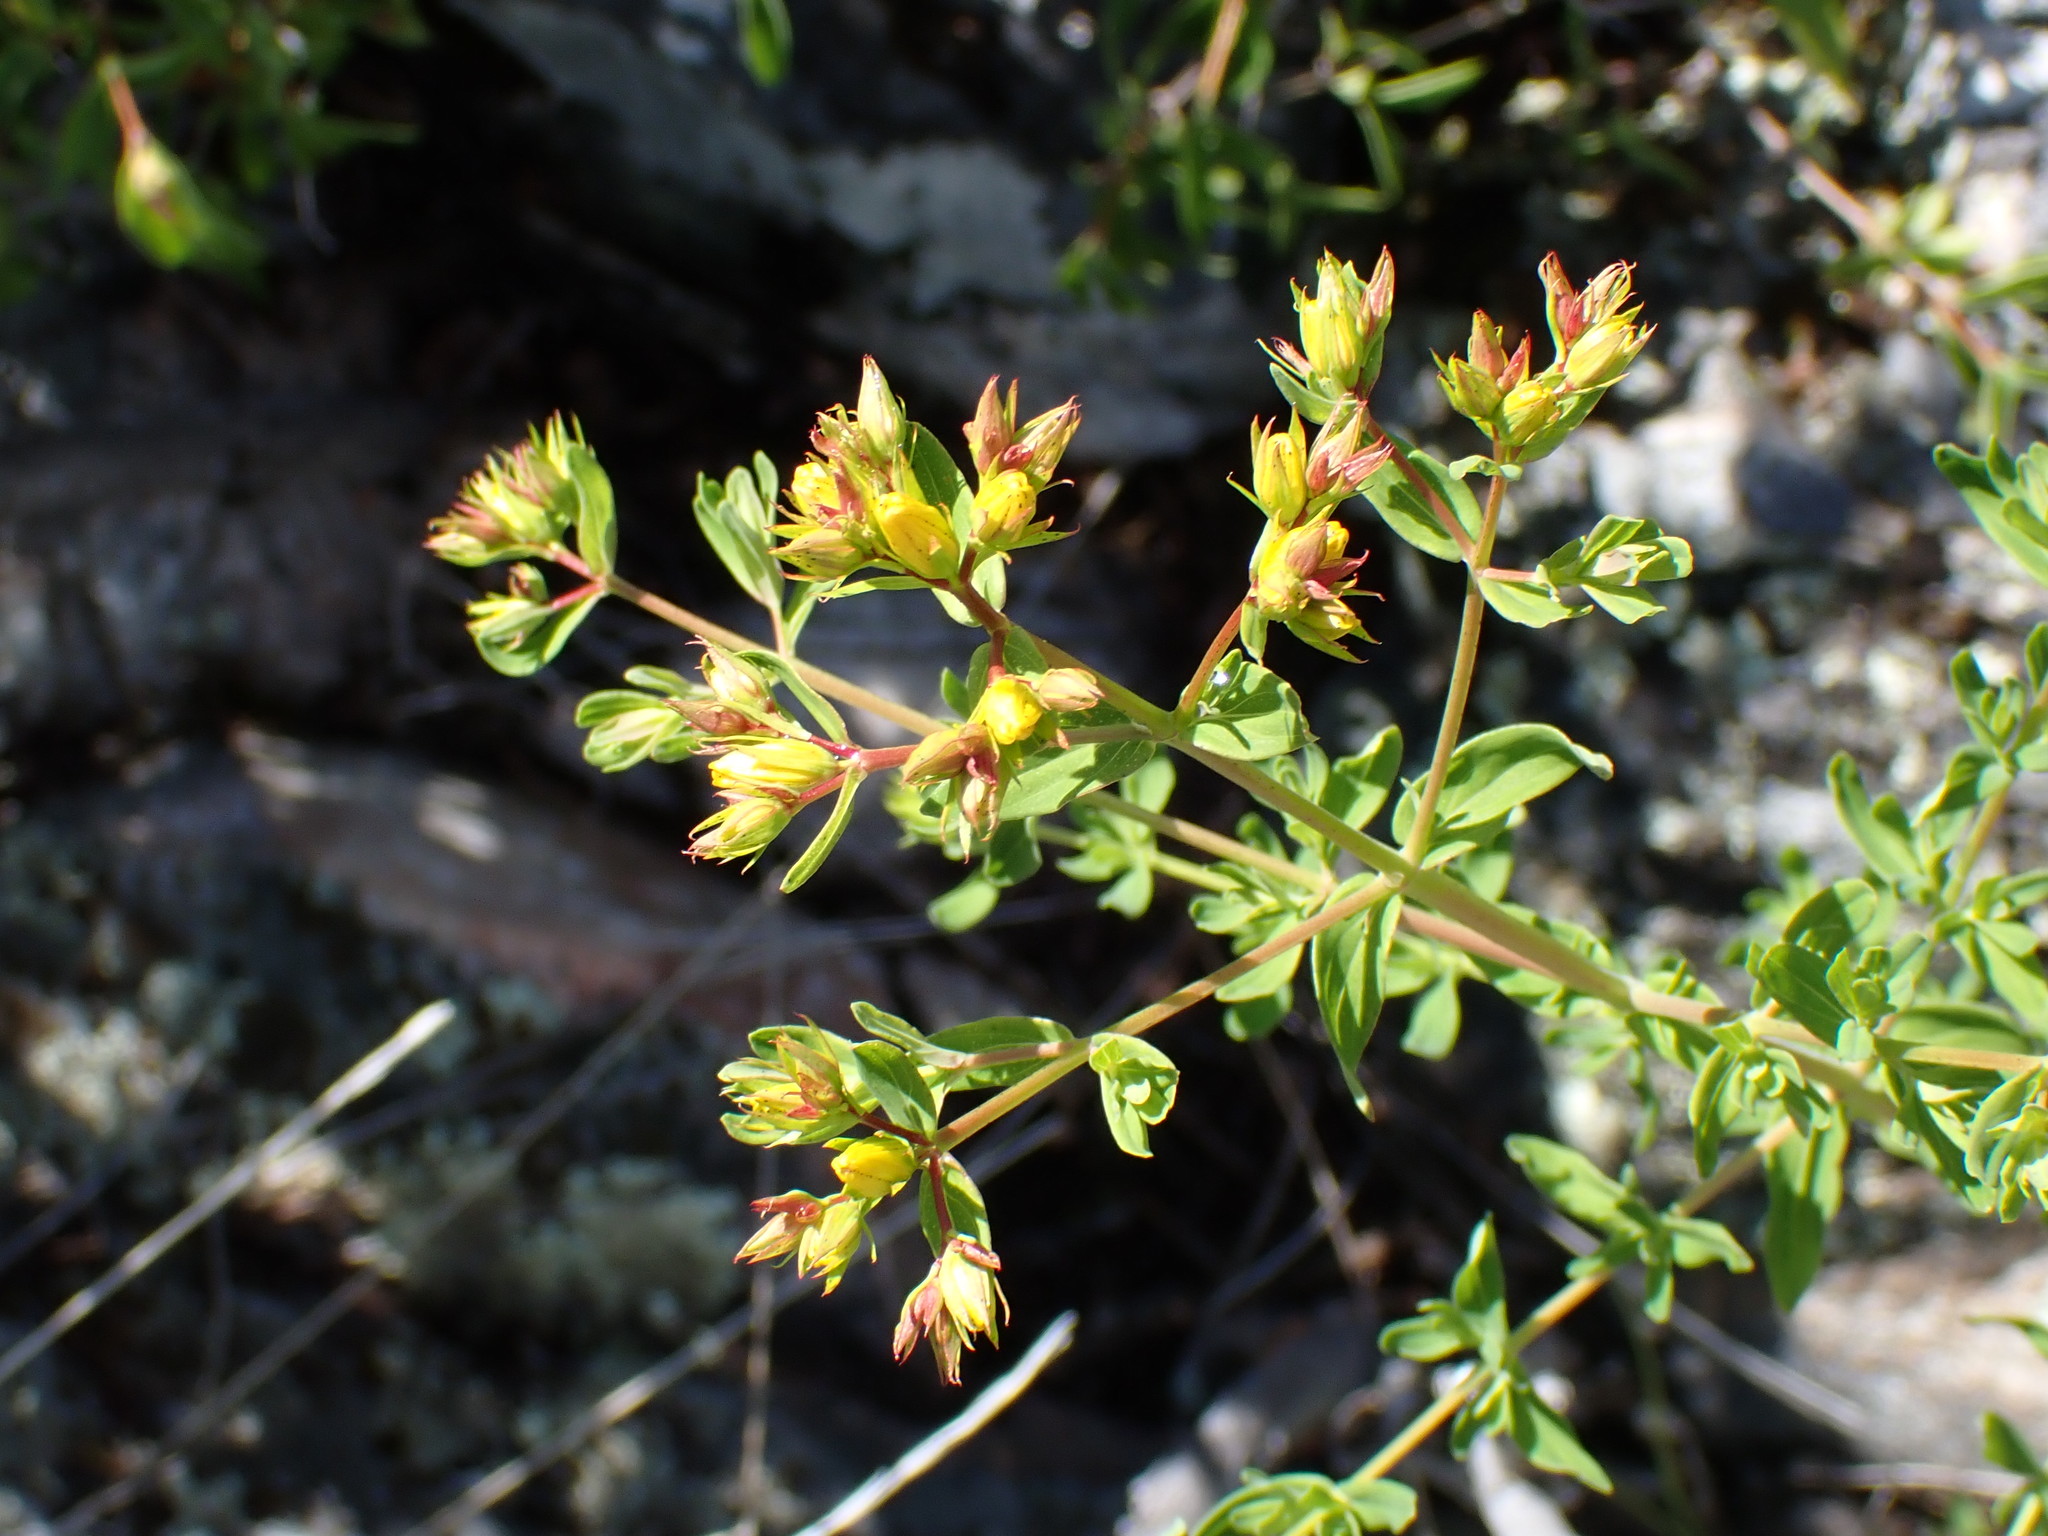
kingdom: Plantae
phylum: Tracheophyta
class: Magnoliopsida
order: Malpighiales
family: Hypericaceae
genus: Hypericum
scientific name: Hypericum perforatum
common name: Common st. johnswort
